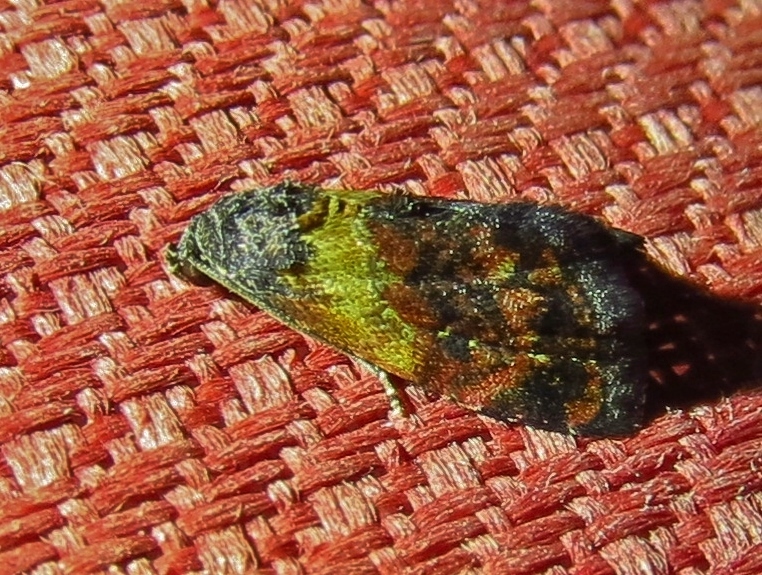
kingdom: Animalia
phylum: Arthropoda
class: Insecta
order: Lepidoptera
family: Noctuidae
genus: Tripudia
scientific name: Tripudia flavofasciata
